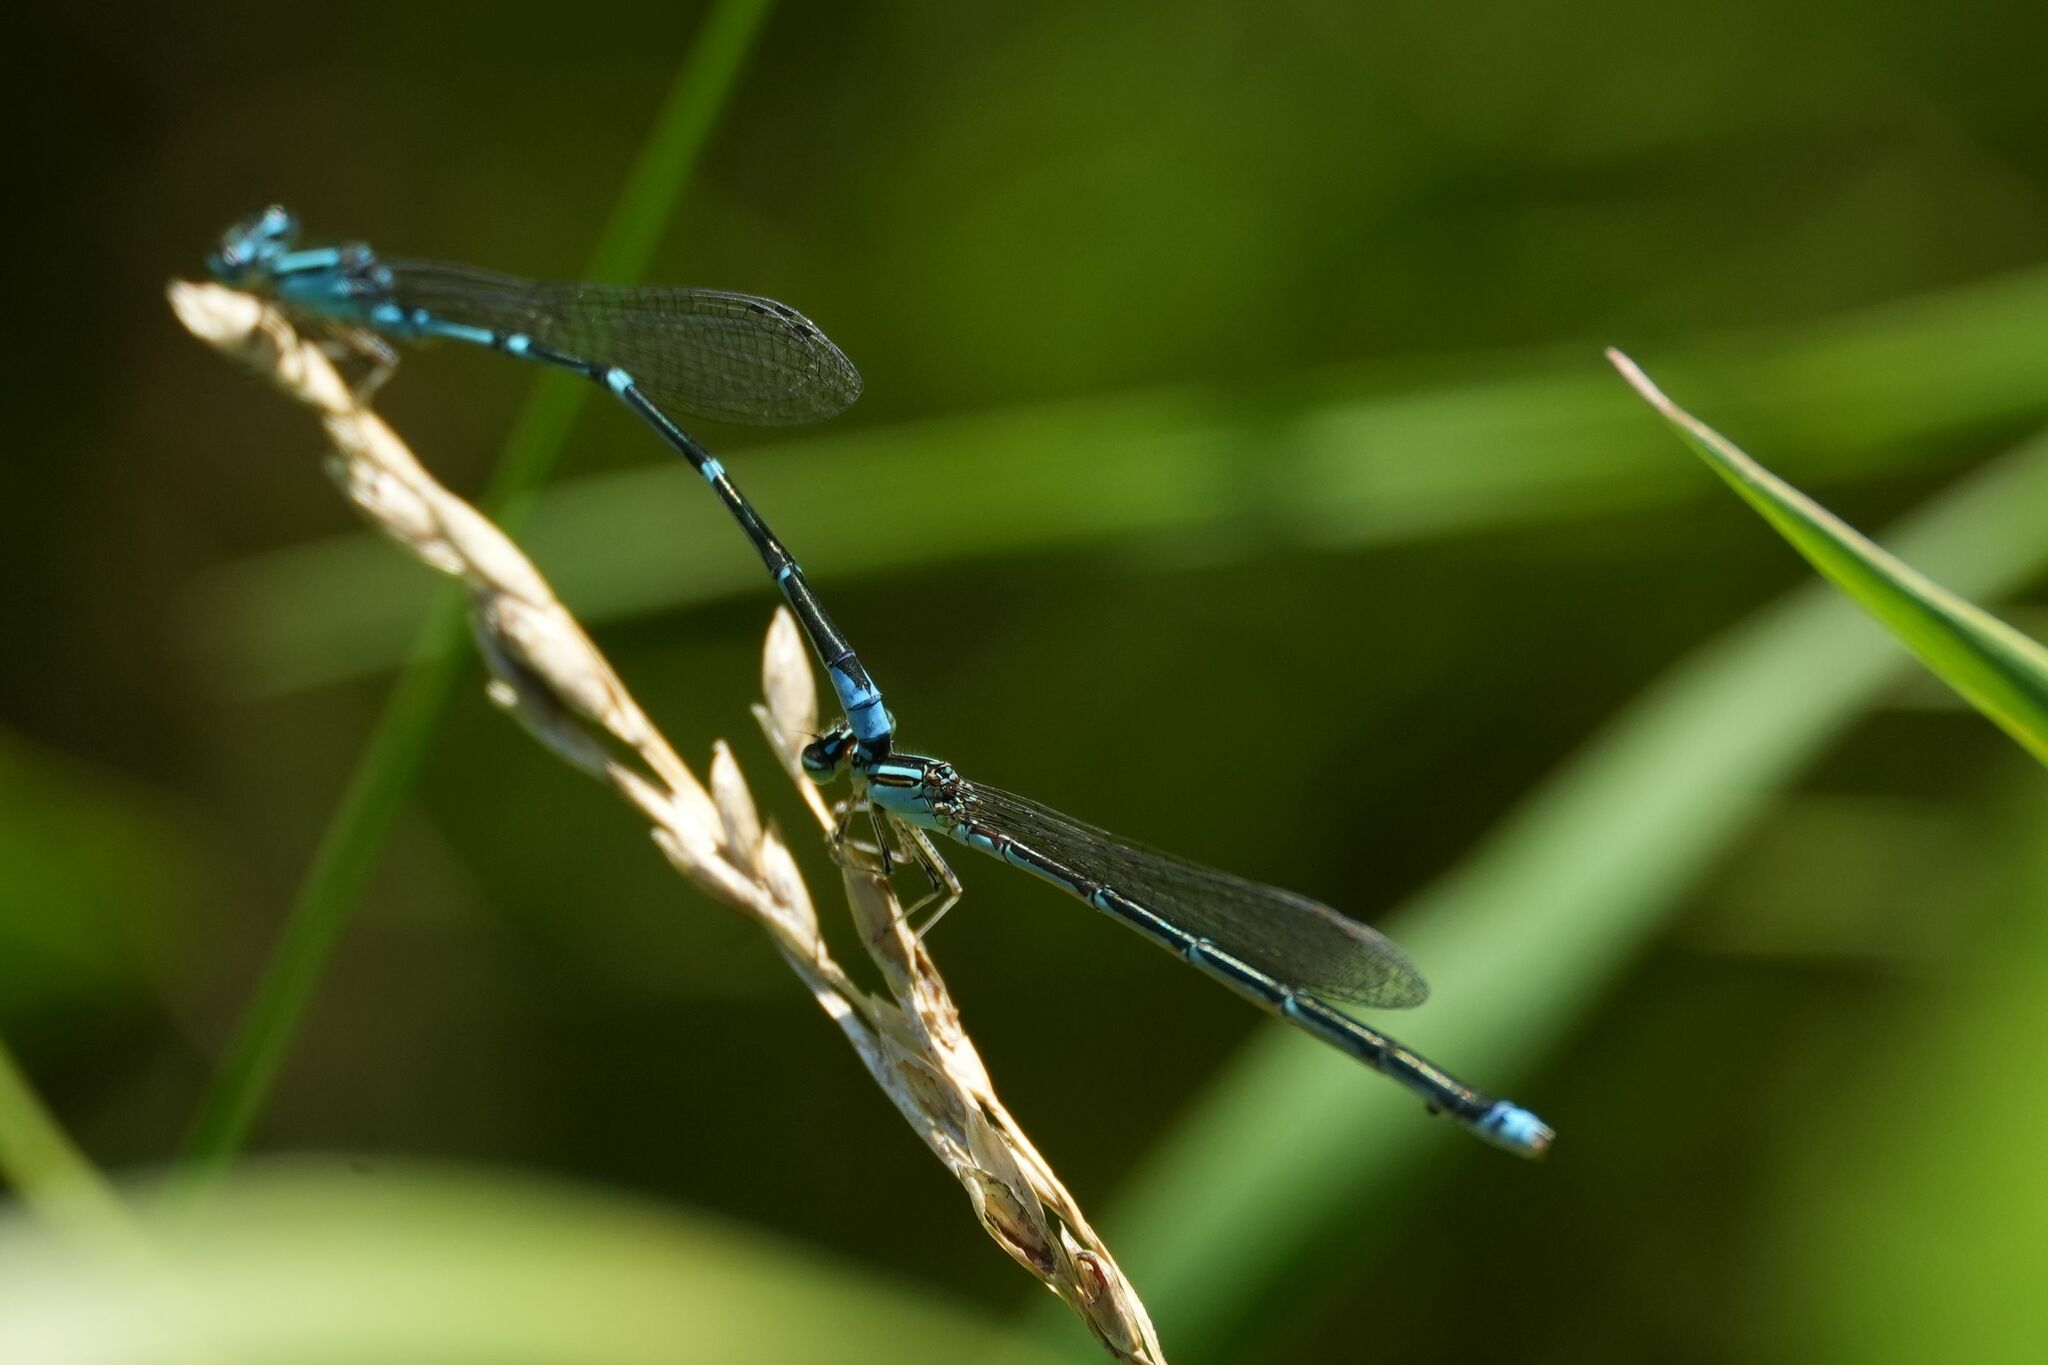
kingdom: Animalia
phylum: Arthropoda
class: Insecta
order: Odonata
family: Coenagrionidae
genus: Enallagma
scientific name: Enallagma exsulans
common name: Stream bluet
